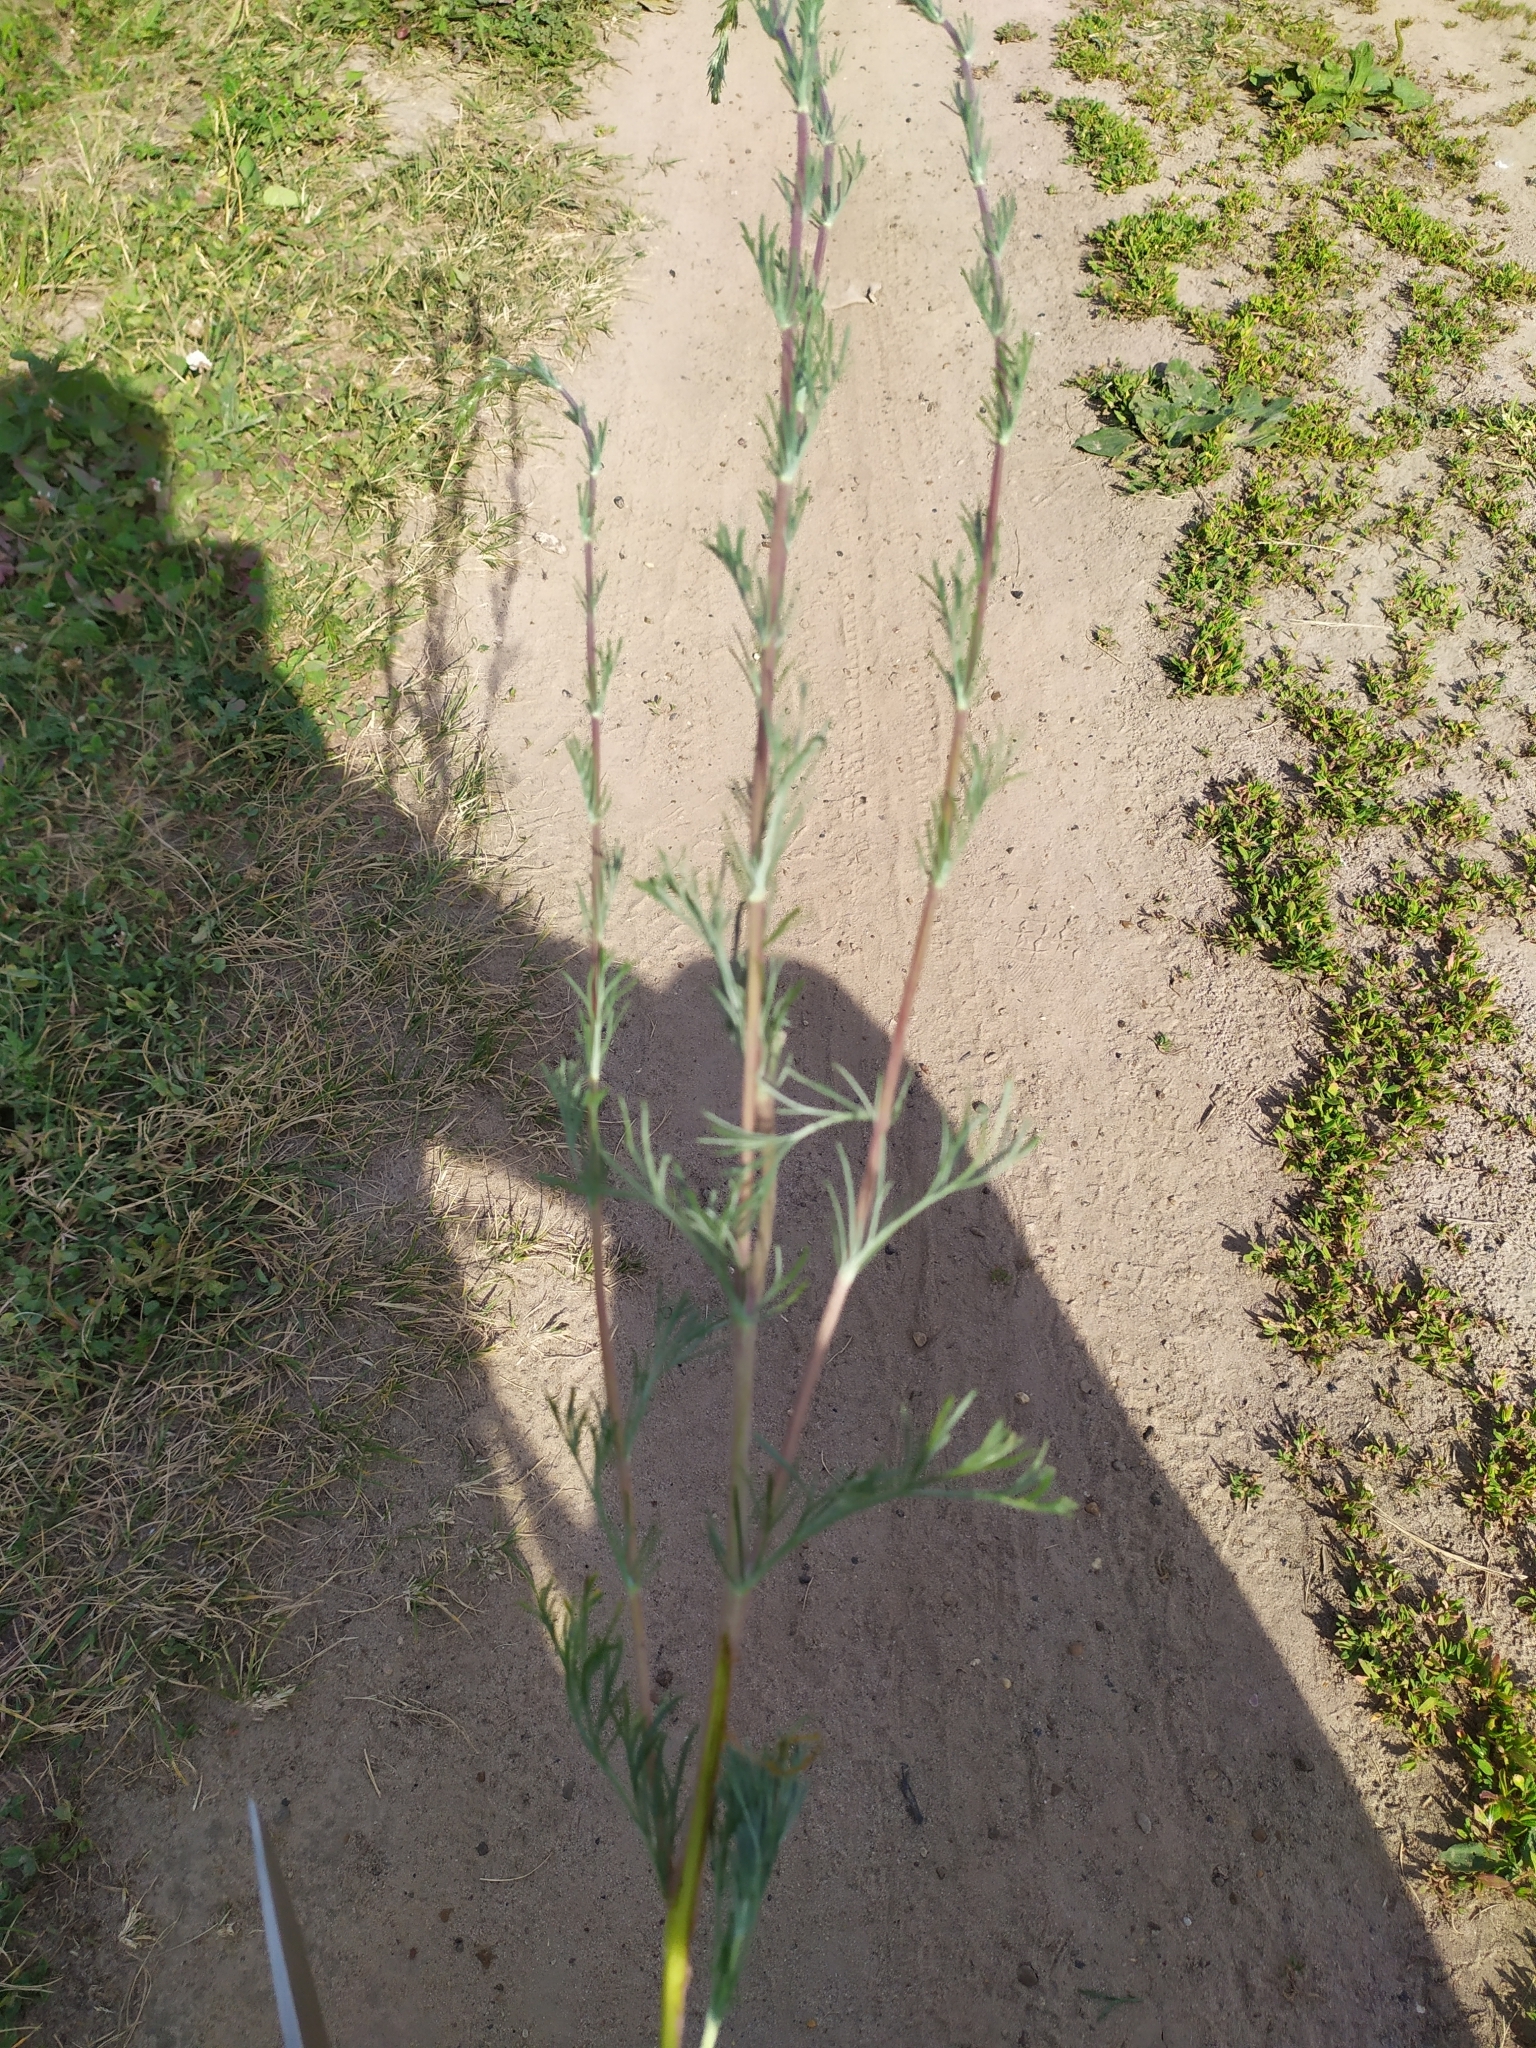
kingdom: Plantae
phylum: Tracheophyta
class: Magnoliopsida
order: Asterales
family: Asteraceae
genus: Artemisia
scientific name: Artemisia campestris
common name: Field wormwood
